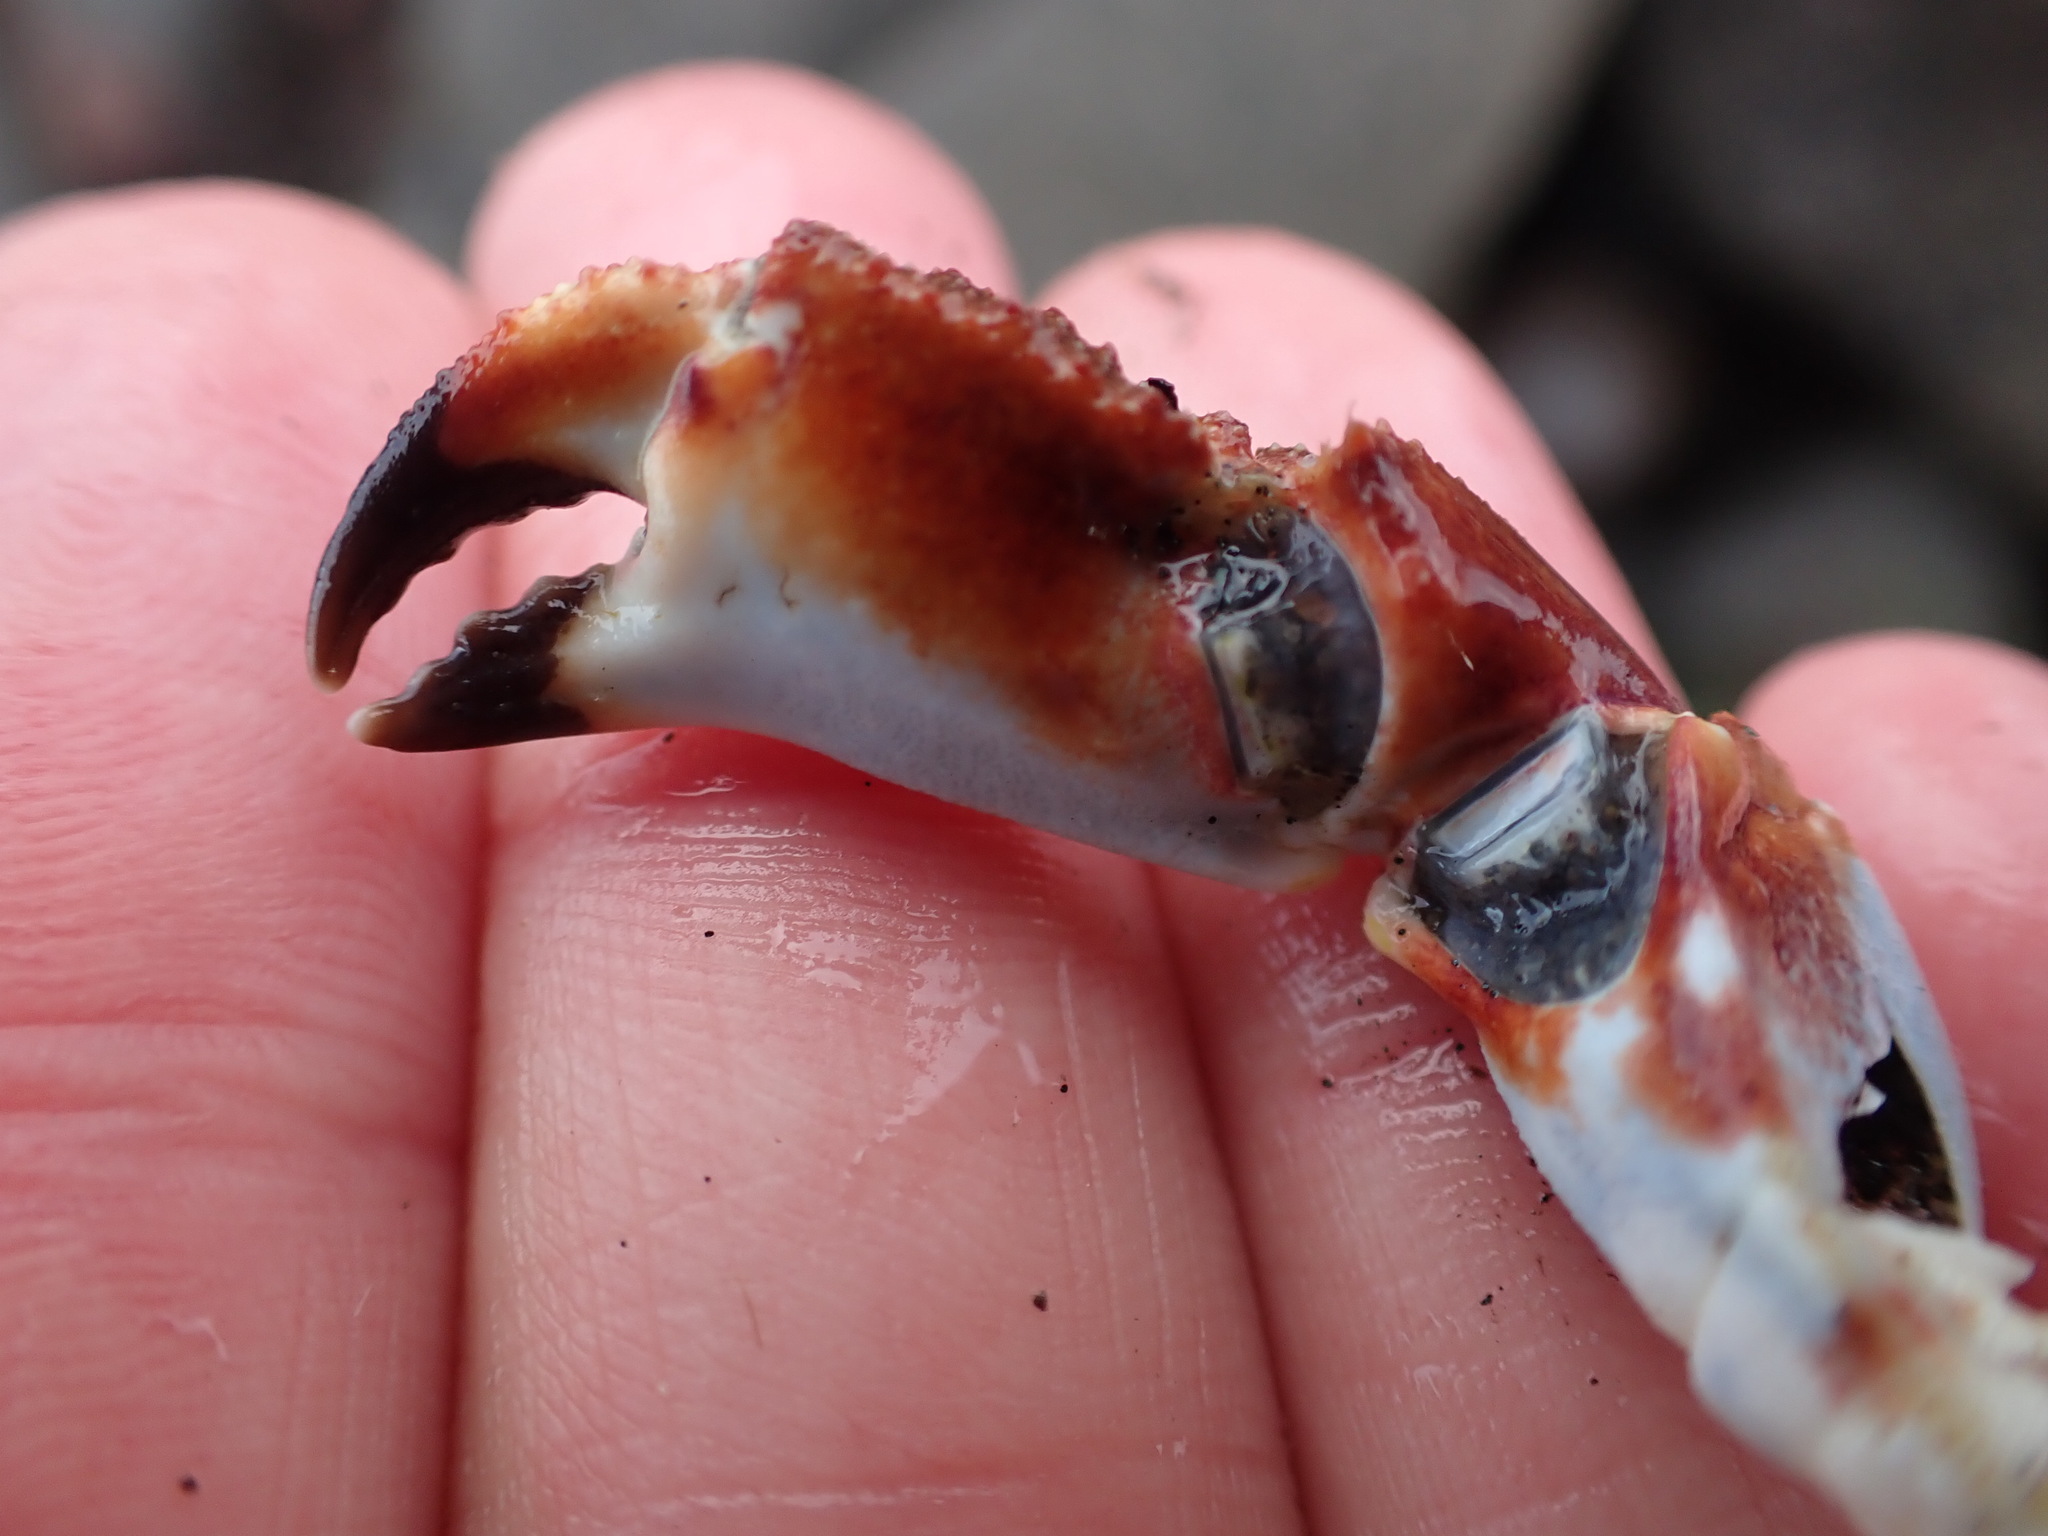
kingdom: Animalia
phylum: Arthropoda
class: Malacostraca
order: Decapoda
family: Cancridae
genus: Metacarcinus
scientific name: Metacarcinus novaezelandiae
